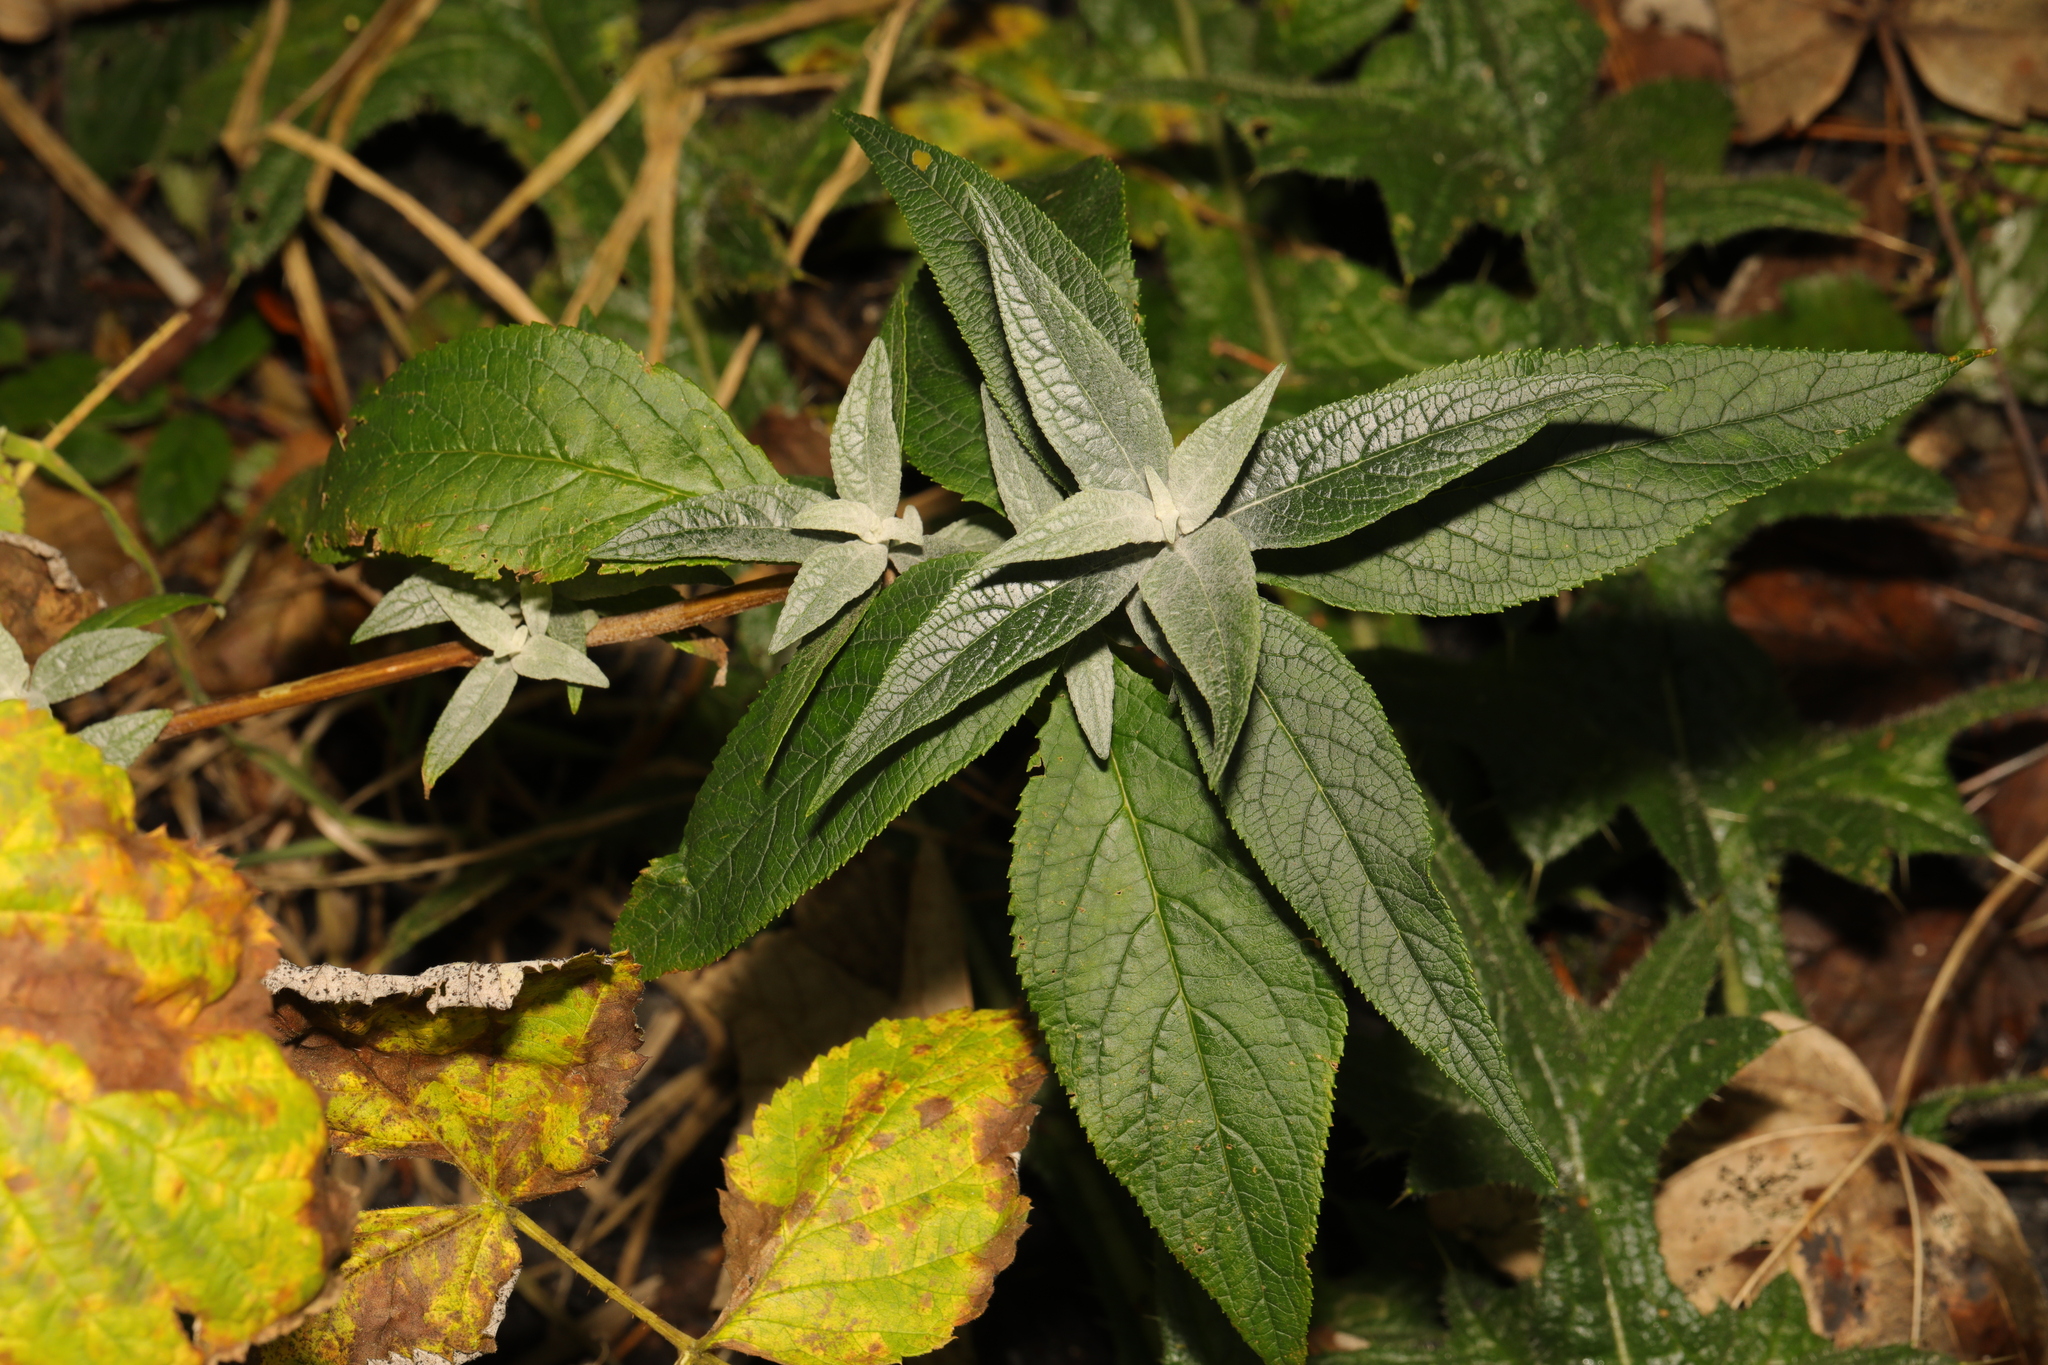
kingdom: Plantae
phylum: Tracheophyta
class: Magnoliopsida
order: Lamiales
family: Scrophulariaceae
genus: Buddleja
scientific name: Buddleja davidii
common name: Butterfly-bush
